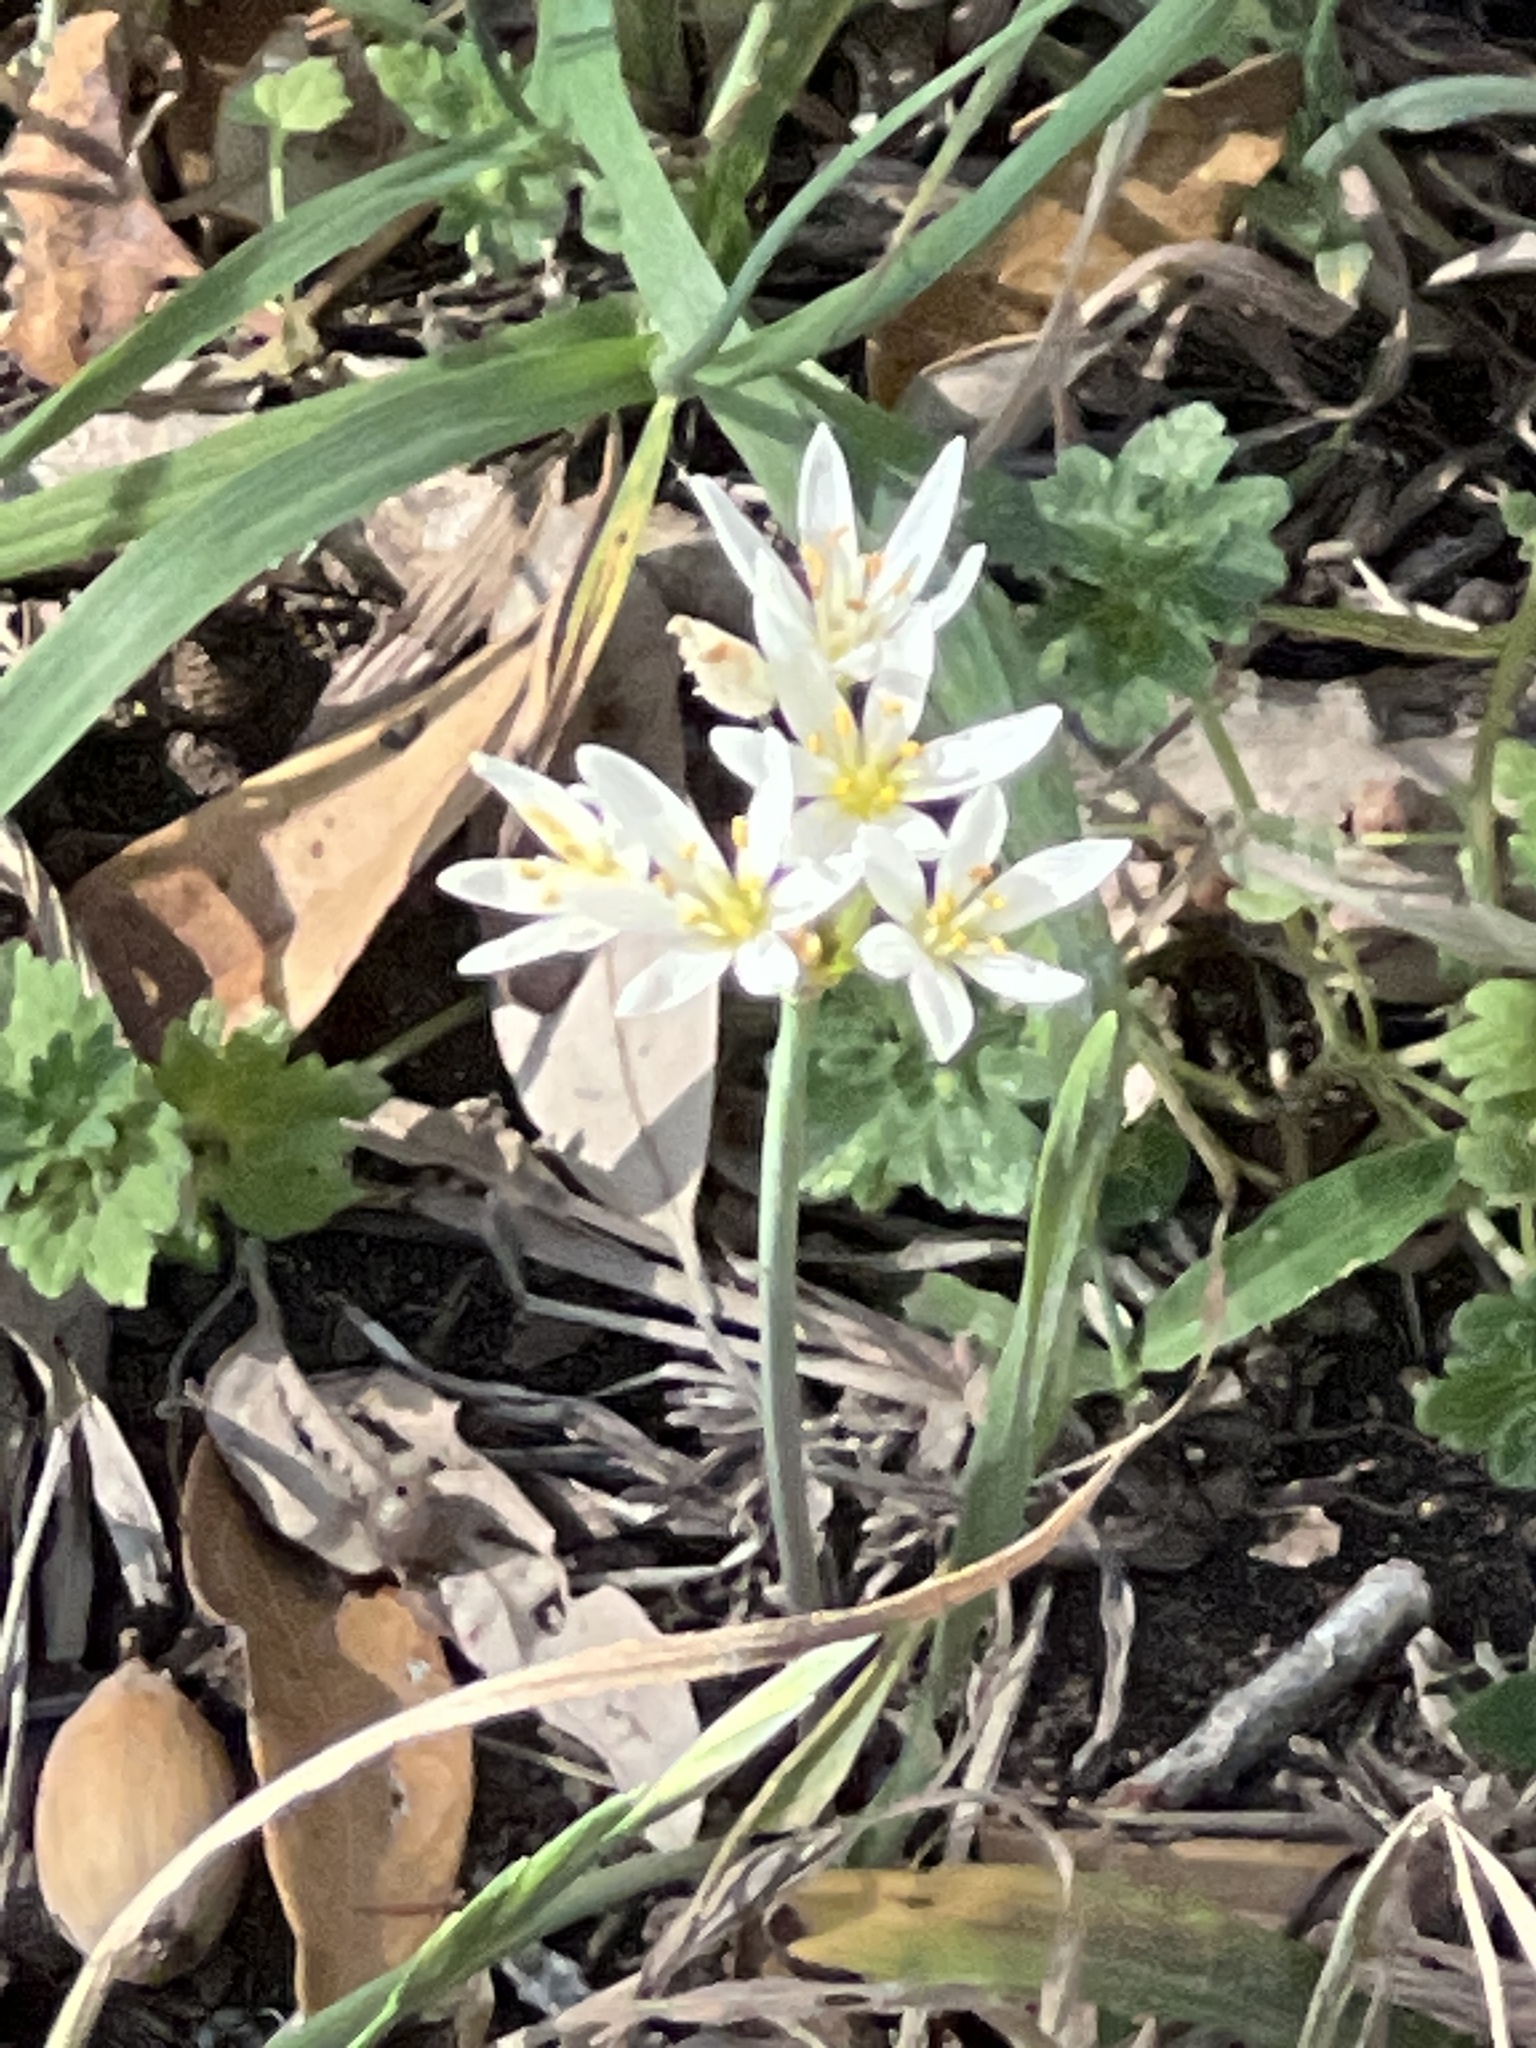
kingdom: Plantae
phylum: Tracheophyta
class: Liliopsida
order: Asparagales
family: Amaryllidaceae
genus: Nothoscordum
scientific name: Nothoscordum bivalve
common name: Crow-poison
